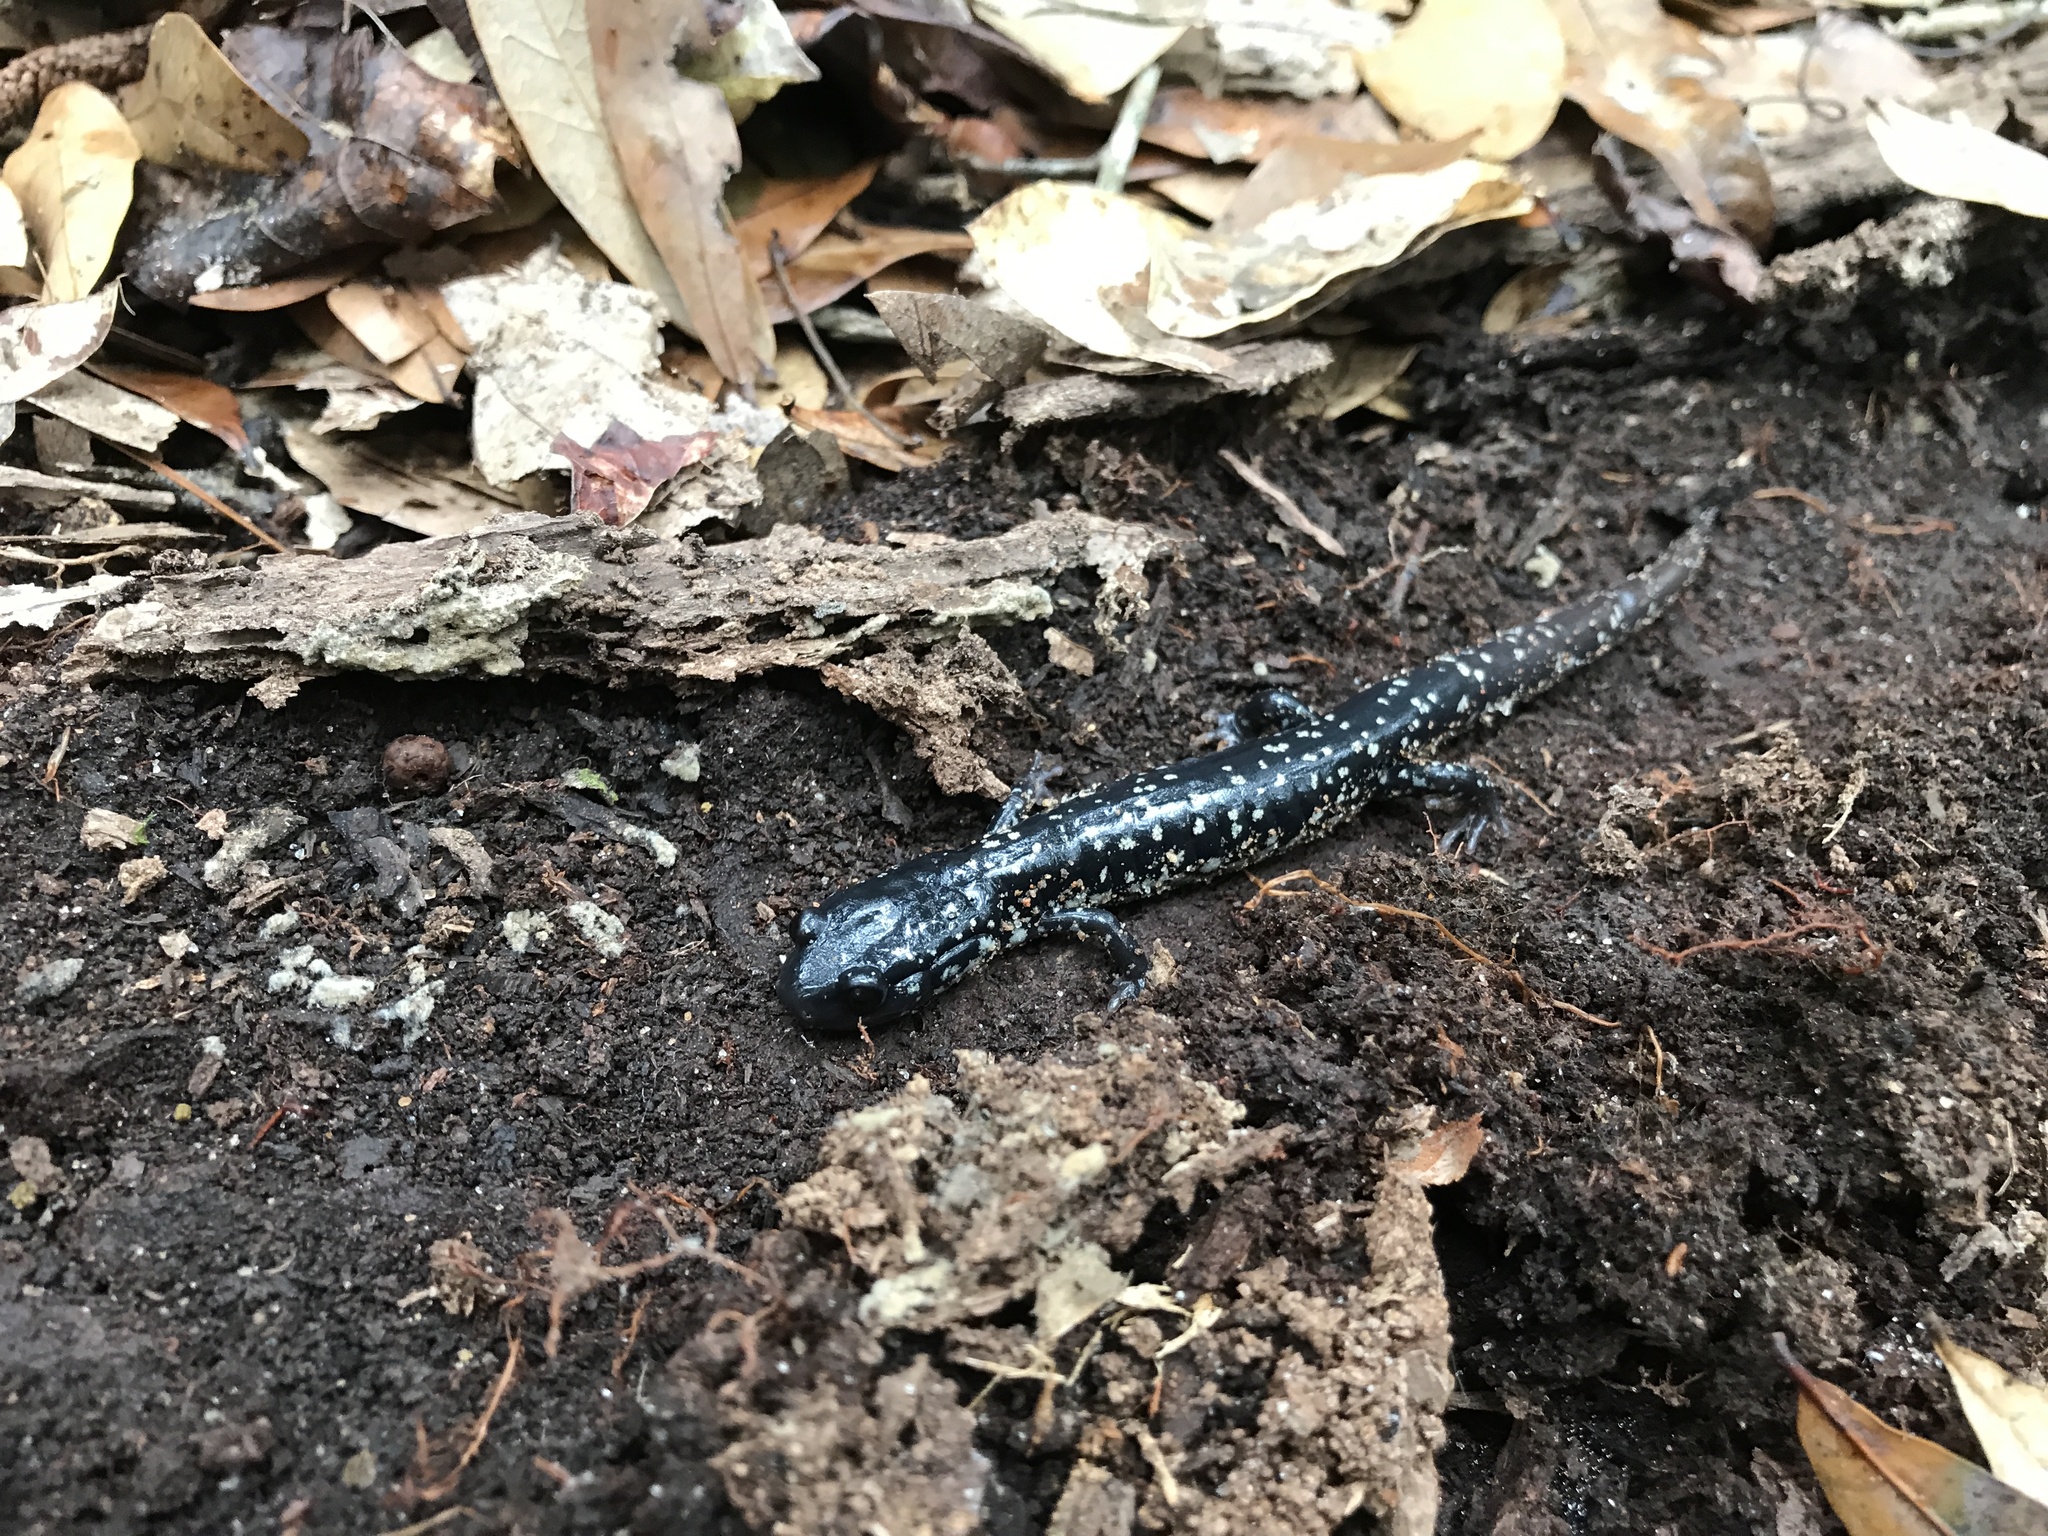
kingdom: Animalia
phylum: Chordata
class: Amphibia
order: Caudata
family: Plethodontidae
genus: Plethodon
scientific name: Plethodon grobmani
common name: Southeastern slimy salamander
